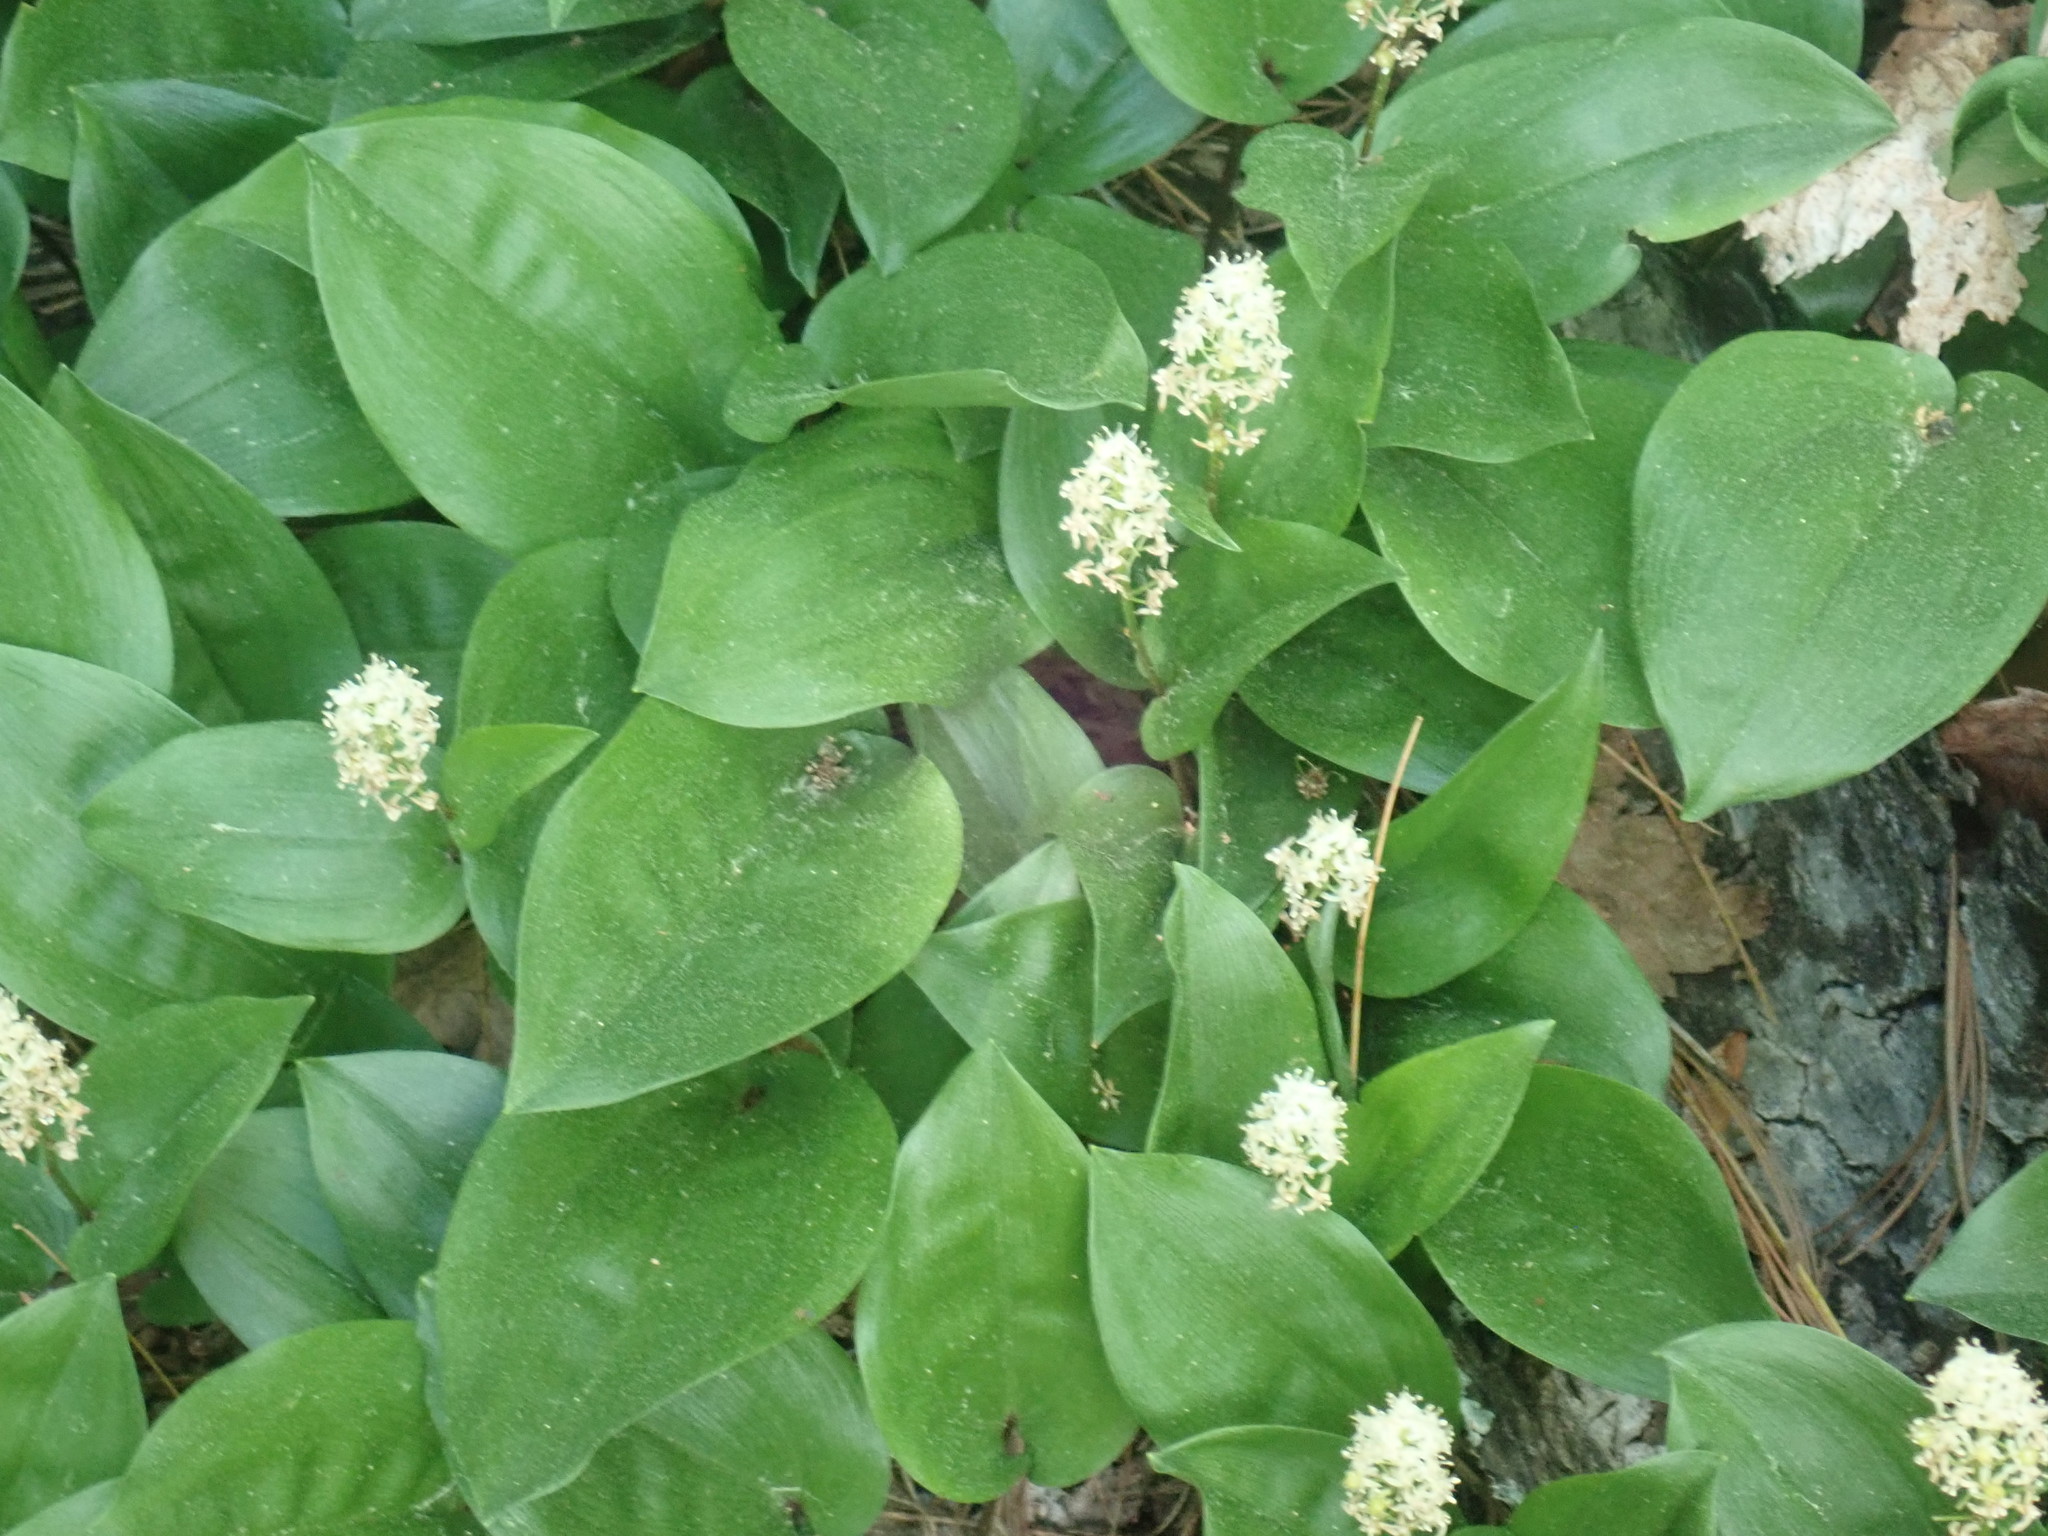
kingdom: Plantae
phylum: Tracheophyta
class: Liliopsida
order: Asparagales
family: Asparagaceae
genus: Maianthemum
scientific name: Maianthemum canadense
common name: False lily-of-the-valley
